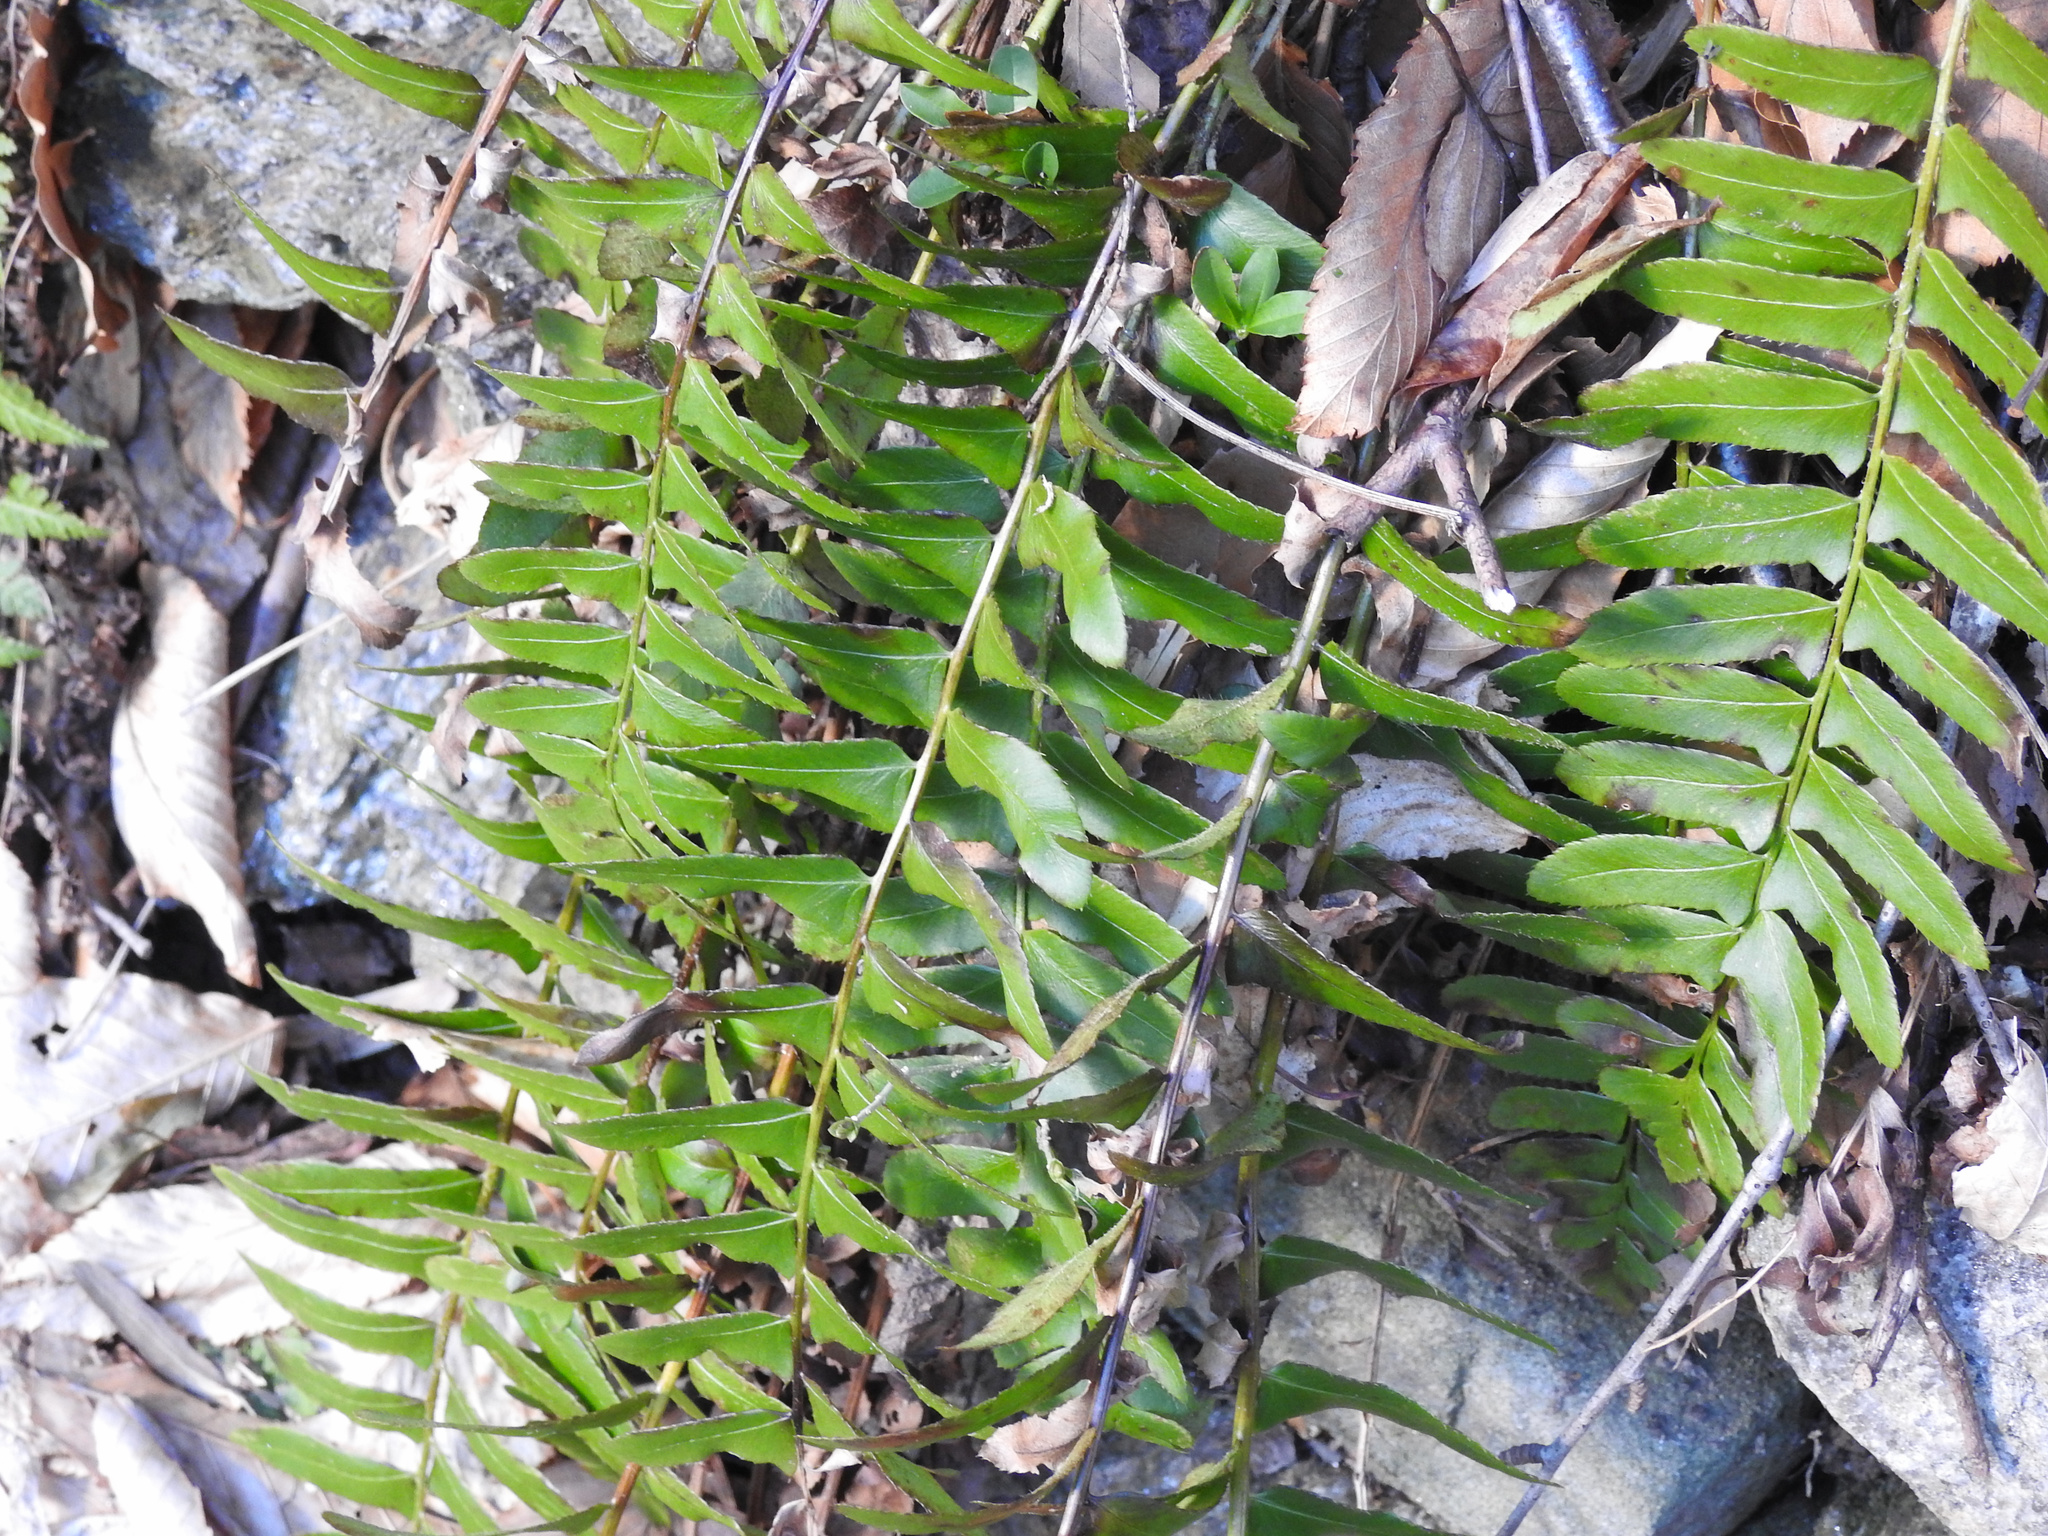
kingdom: Plantae
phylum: Tracheophyta
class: Polypodiopsida
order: Polypodiales
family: Dryopteridaceae
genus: Polystichum
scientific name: Polystichum acrostichoides
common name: Christmas fern
